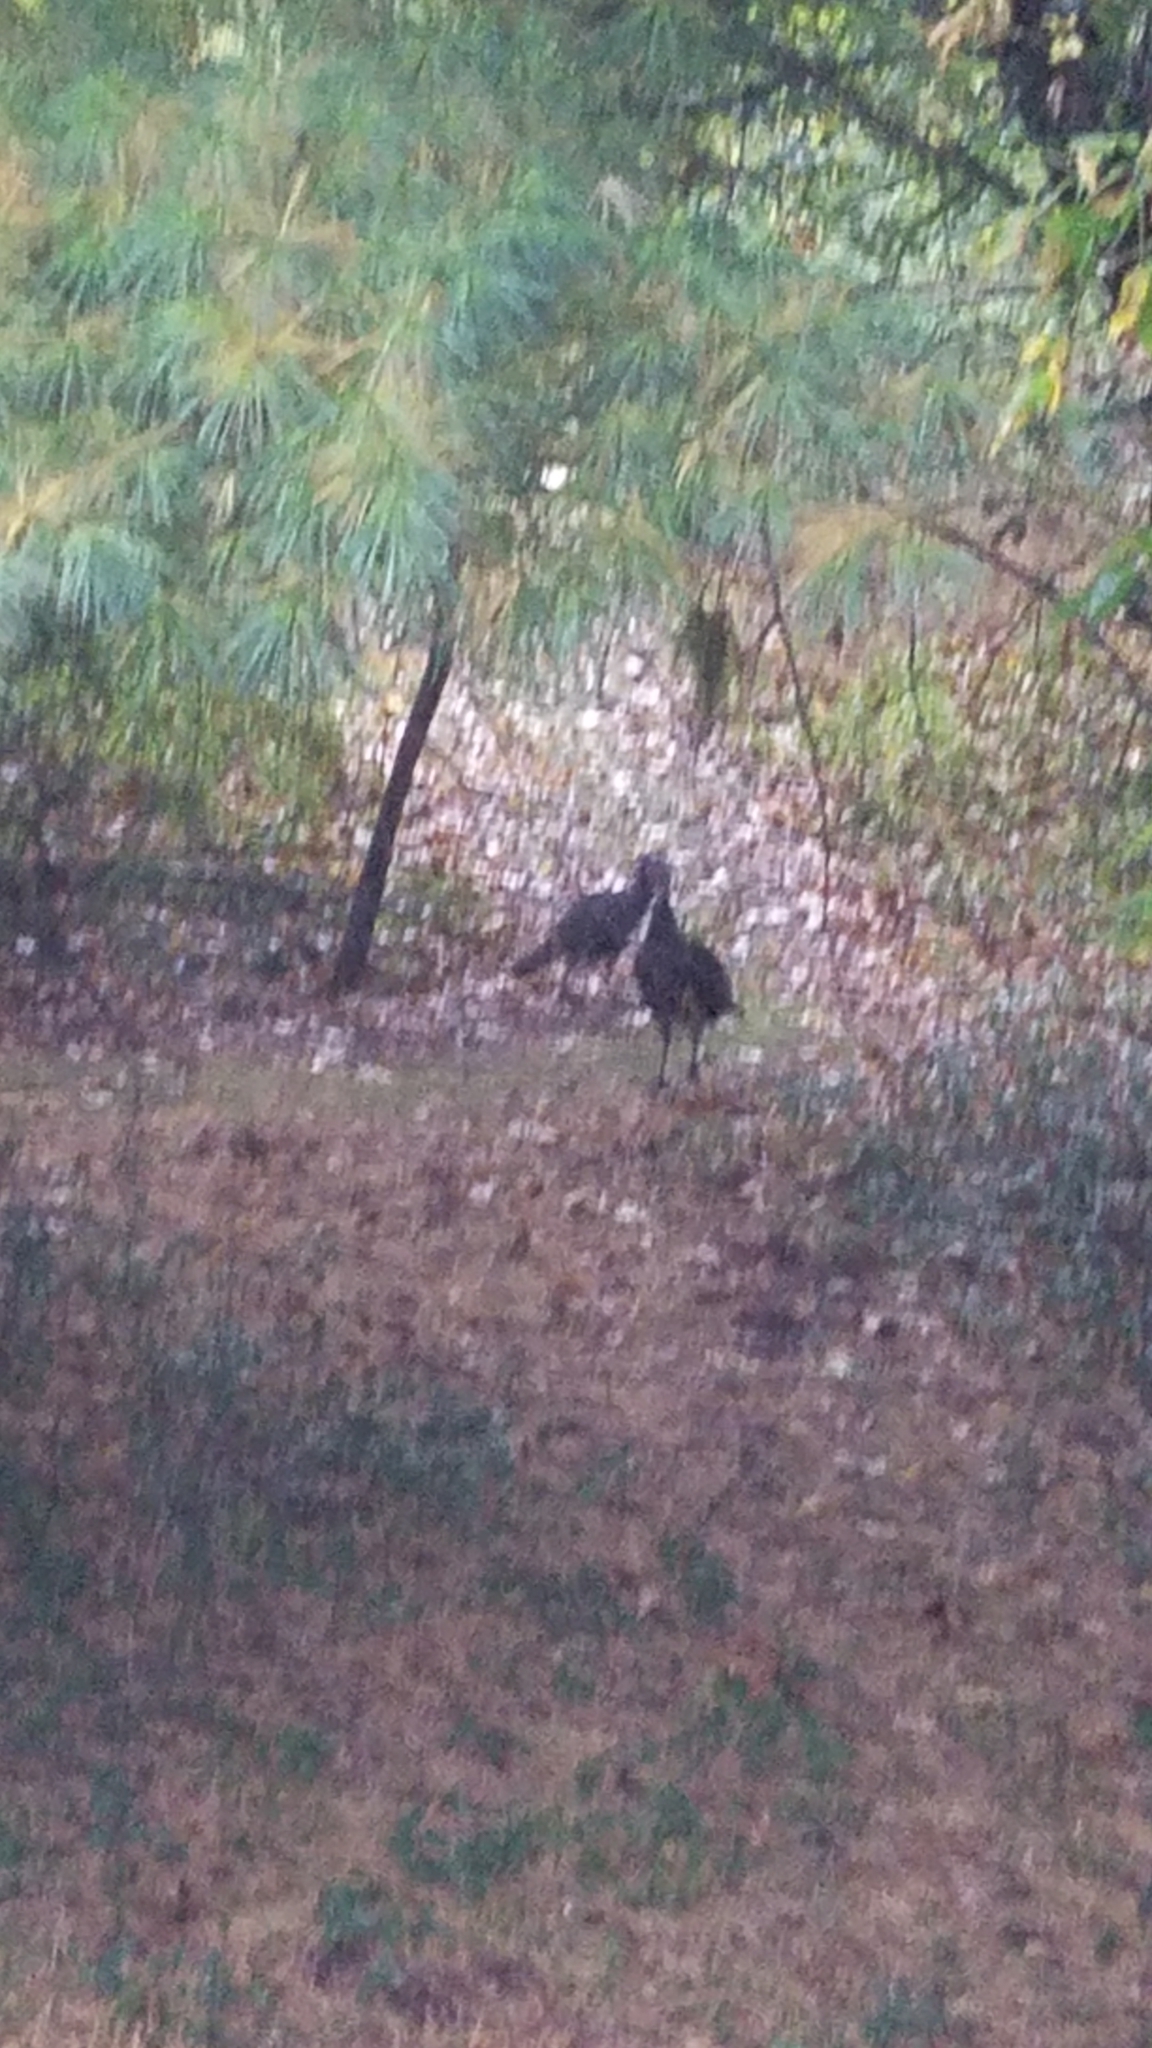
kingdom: Animalia
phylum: Chordata
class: Aves
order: Galliformes
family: Phasianidae
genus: Meleagris
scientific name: Meleagris gallopavo
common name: Wild turkey
